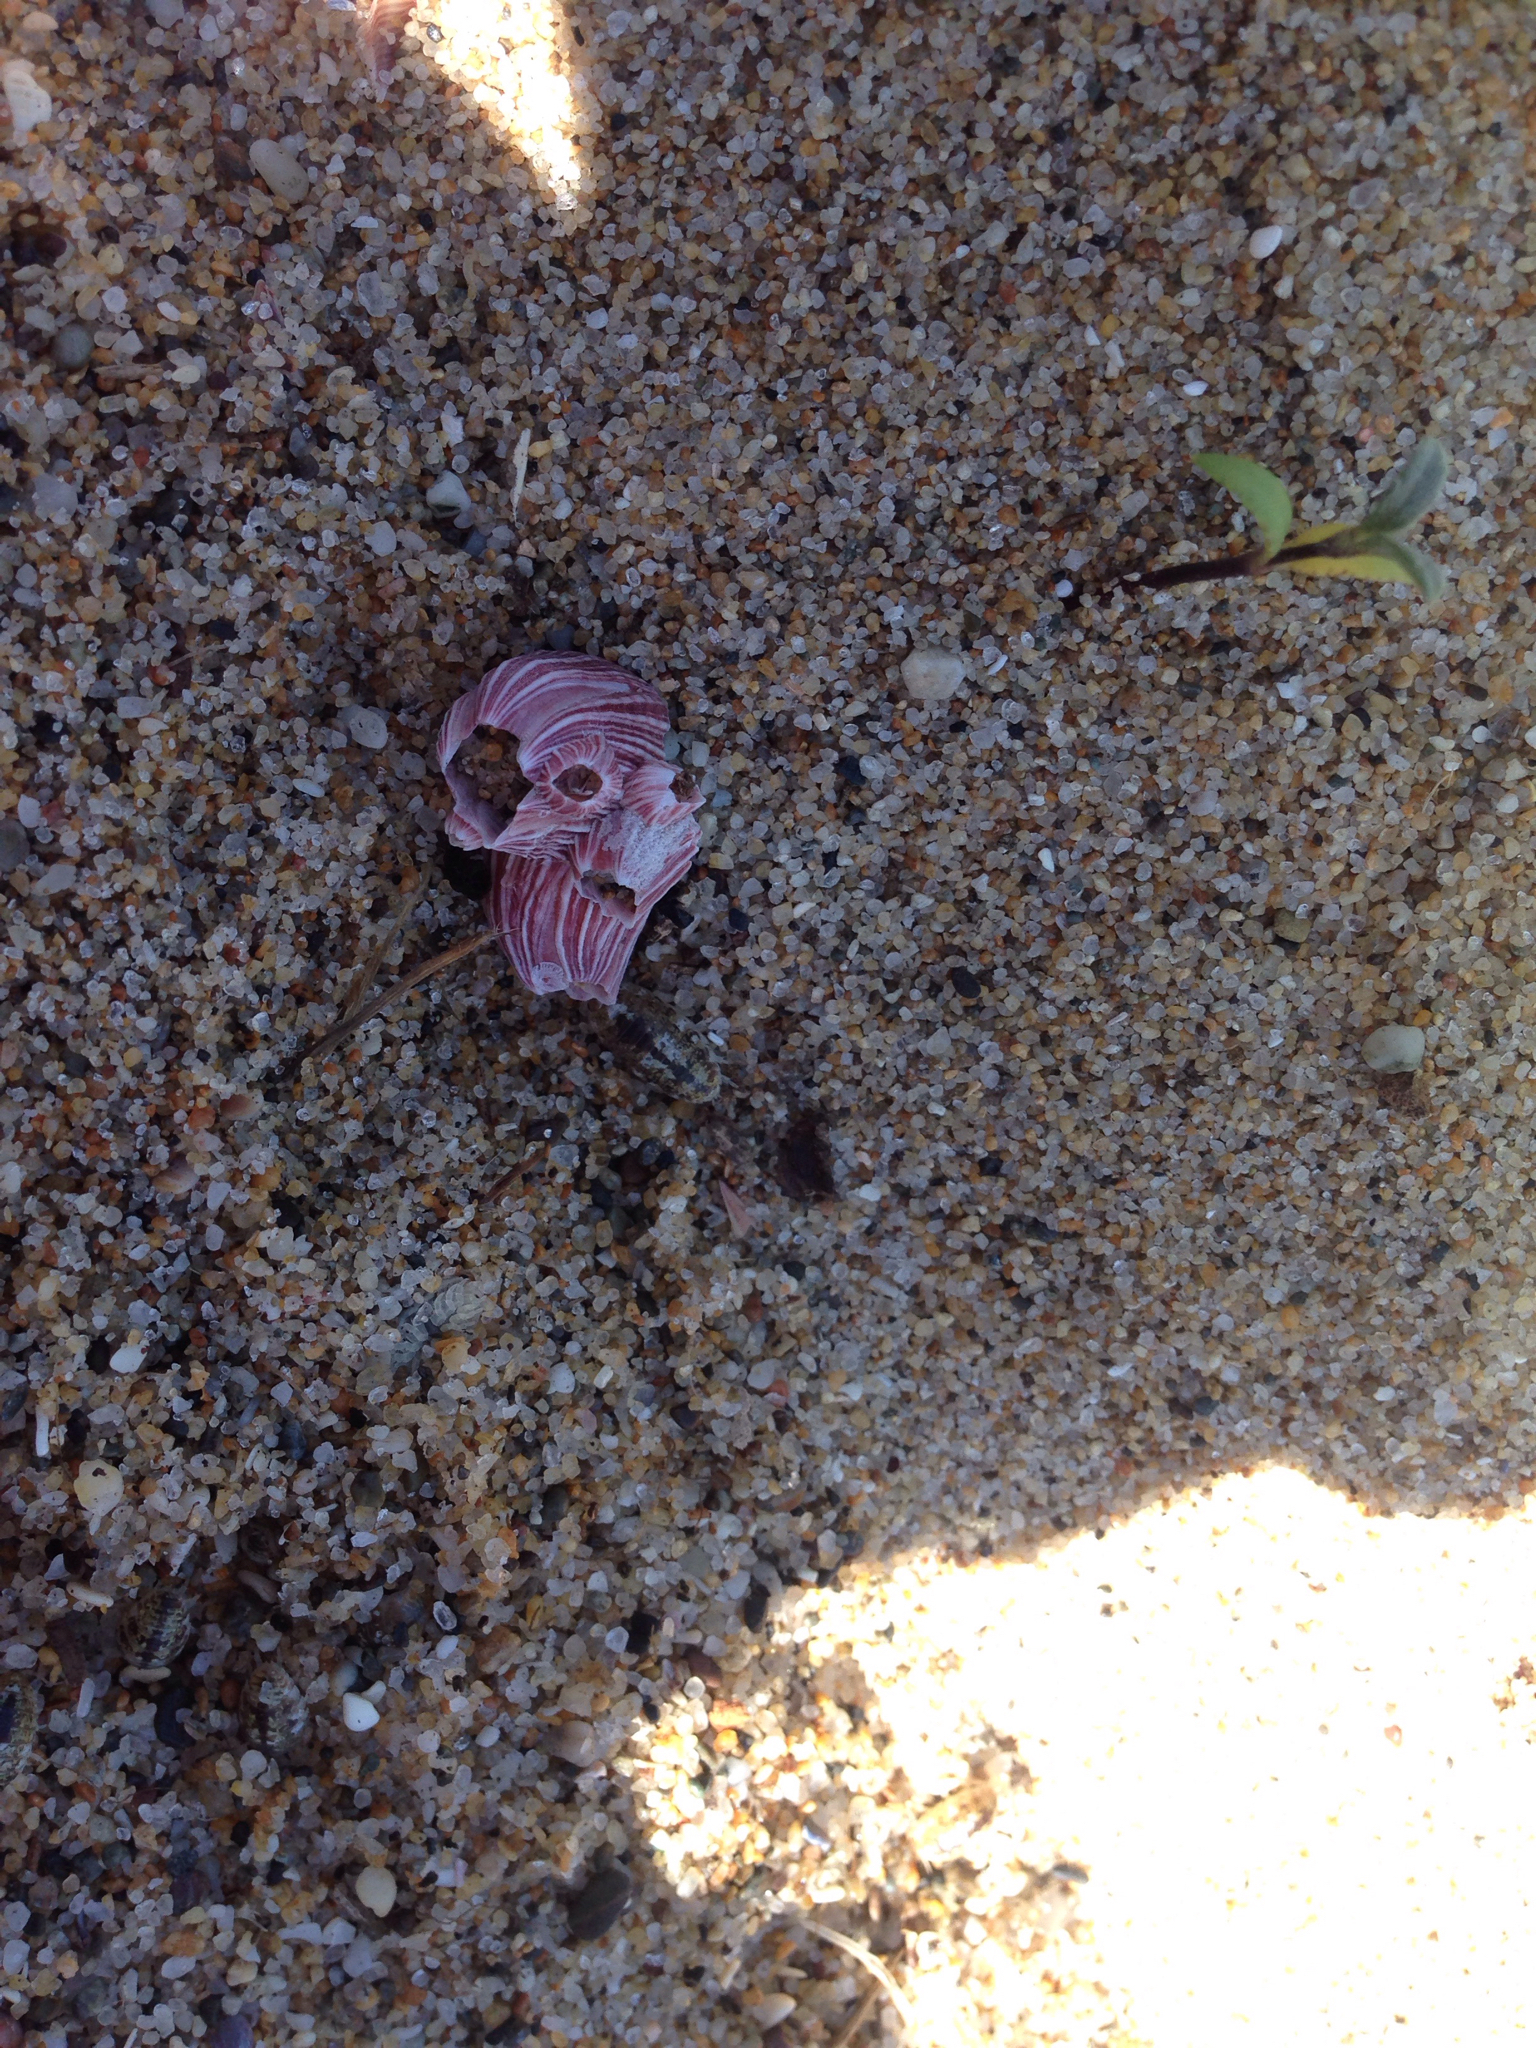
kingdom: Animalia
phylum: Arthropoda
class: Maxillopoda
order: Sessilia
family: Balanidae
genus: Megabalanus
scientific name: Megabalanus californicus
